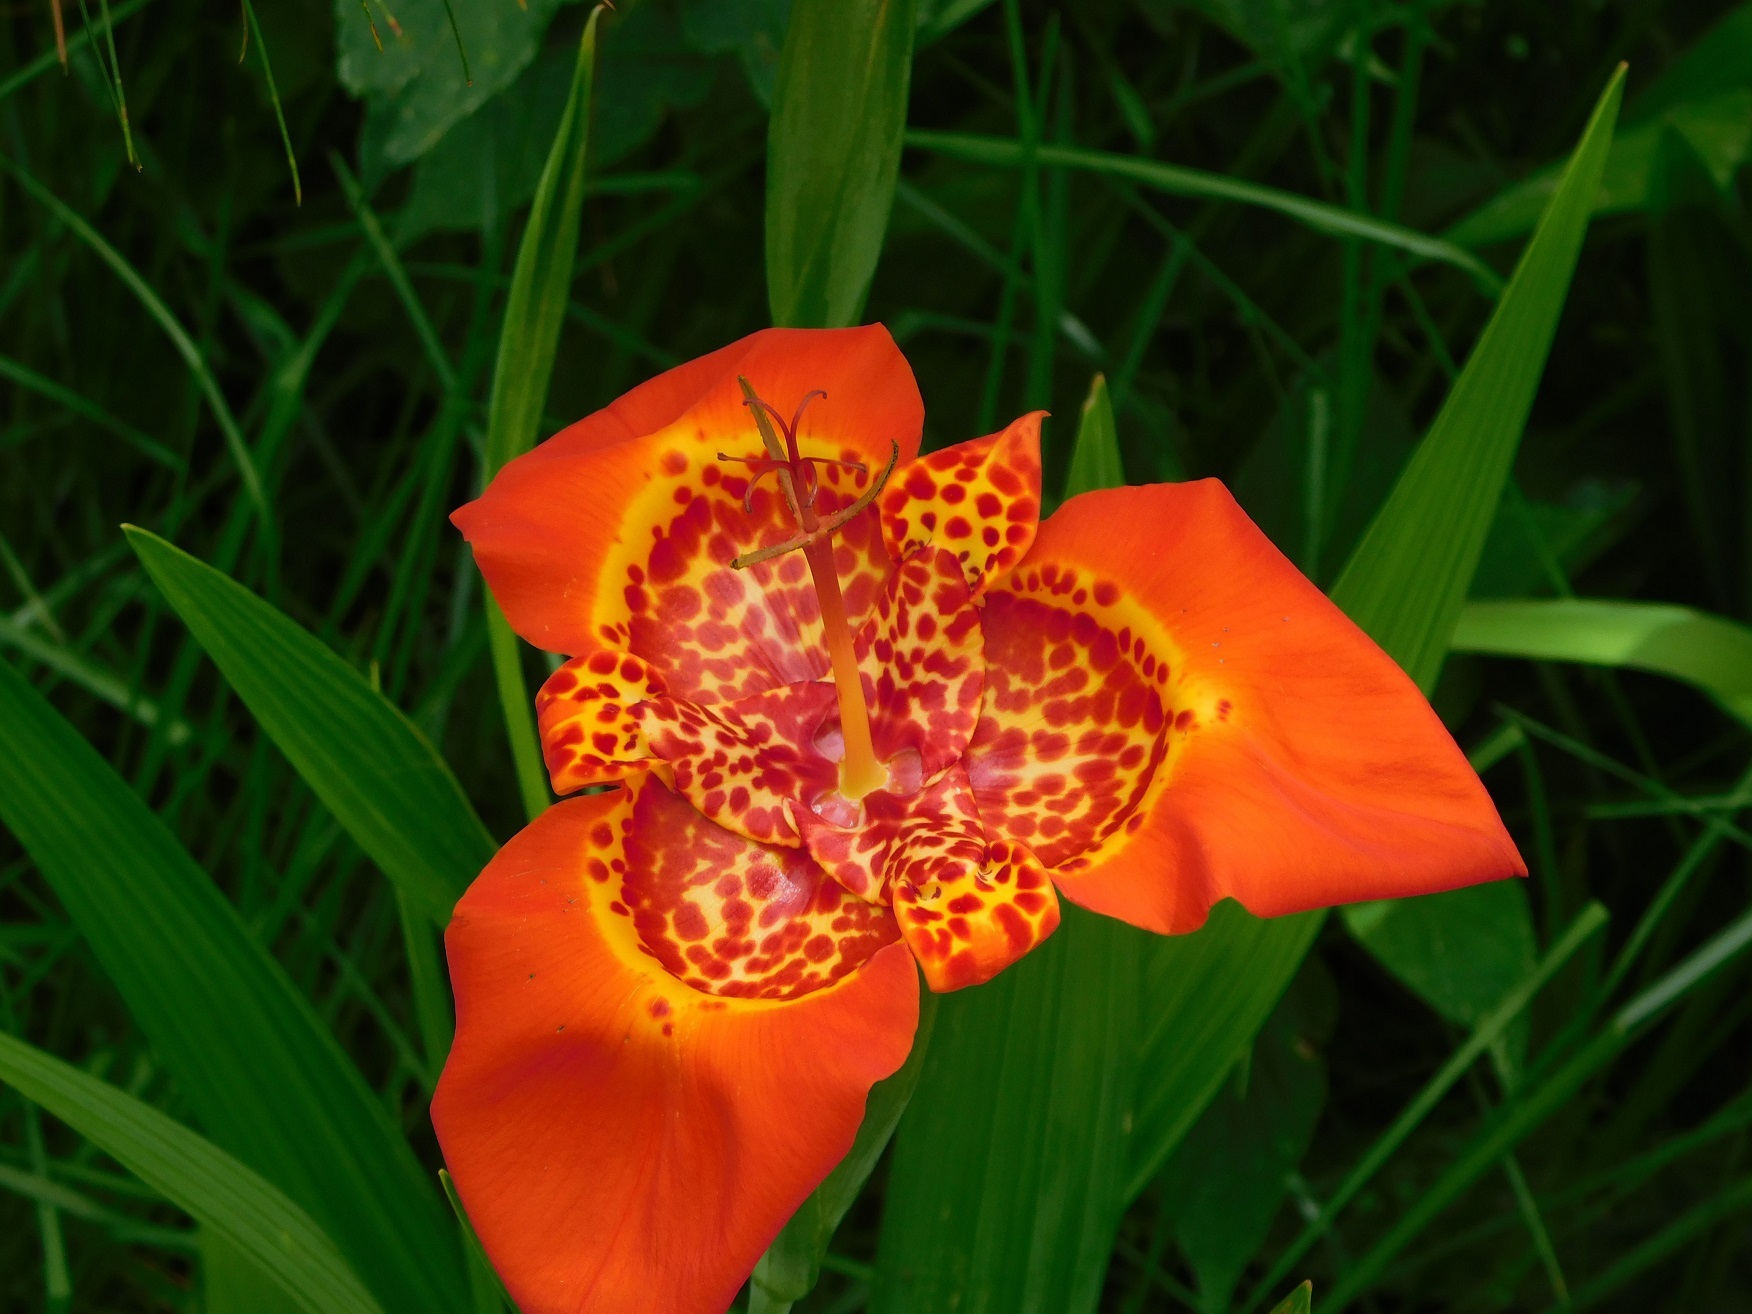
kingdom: Plantae
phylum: Tracheophyta
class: Liliopsida
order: Asparagales
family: Iridaceae
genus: Tigridia
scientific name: Tigridia pavonia
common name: Peacock-flower
